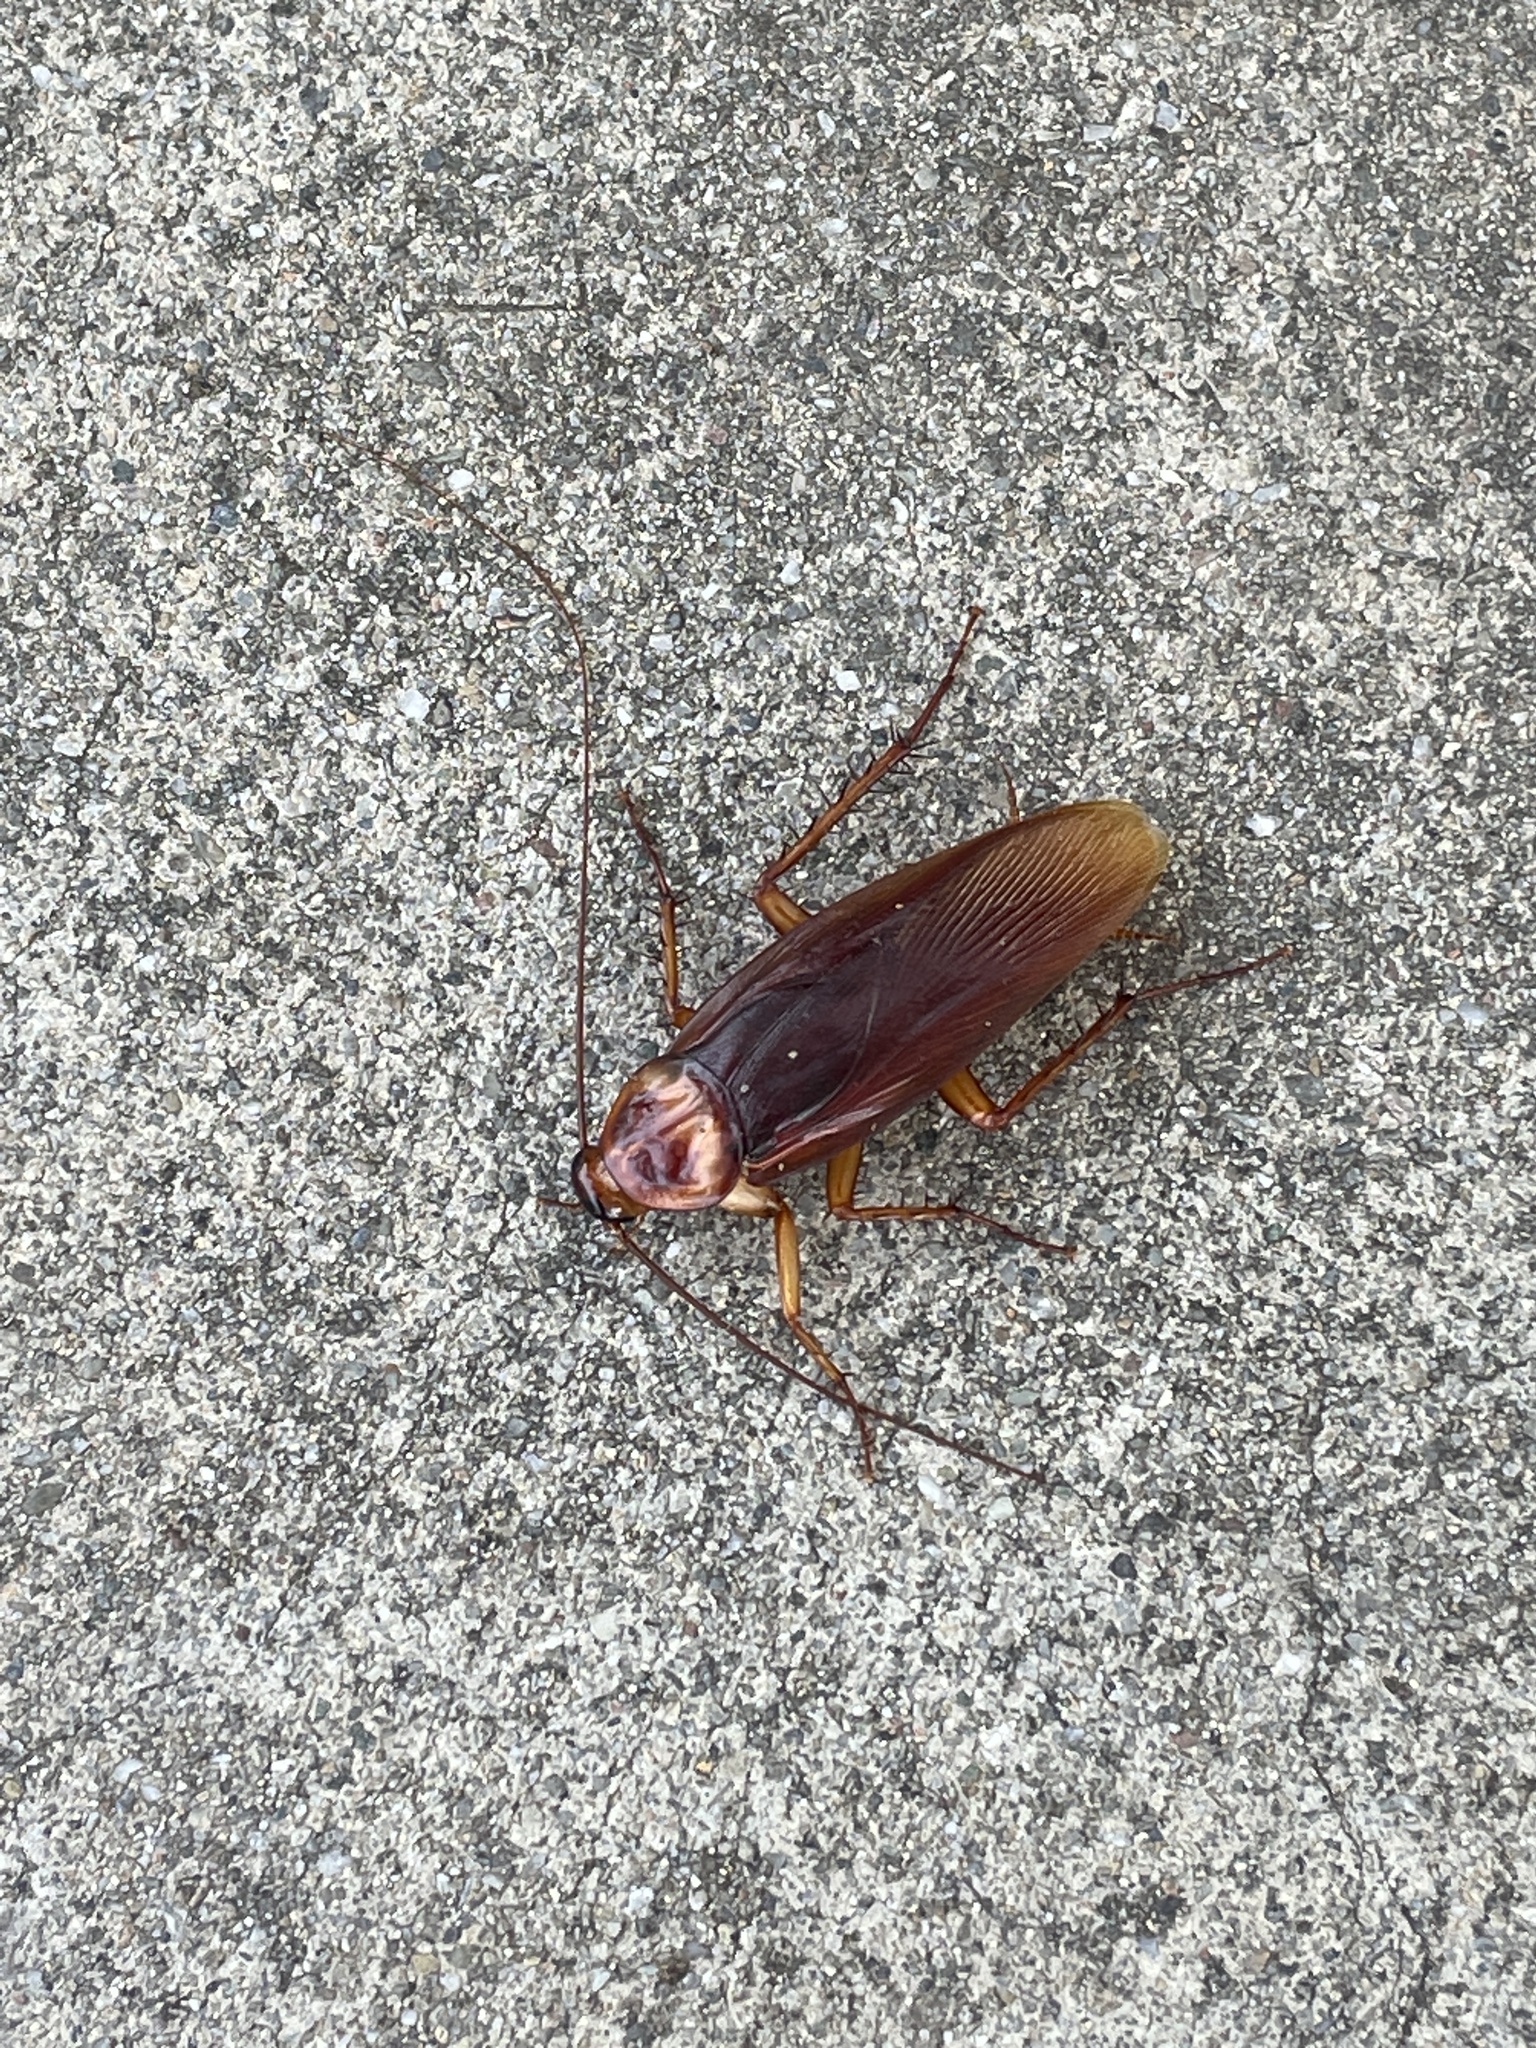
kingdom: Animalia
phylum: Arthropoda
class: Insecta
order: Blattodea
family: Blattidae
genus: Periplaneta
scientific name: Periplaneta americana
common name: American cockroach
